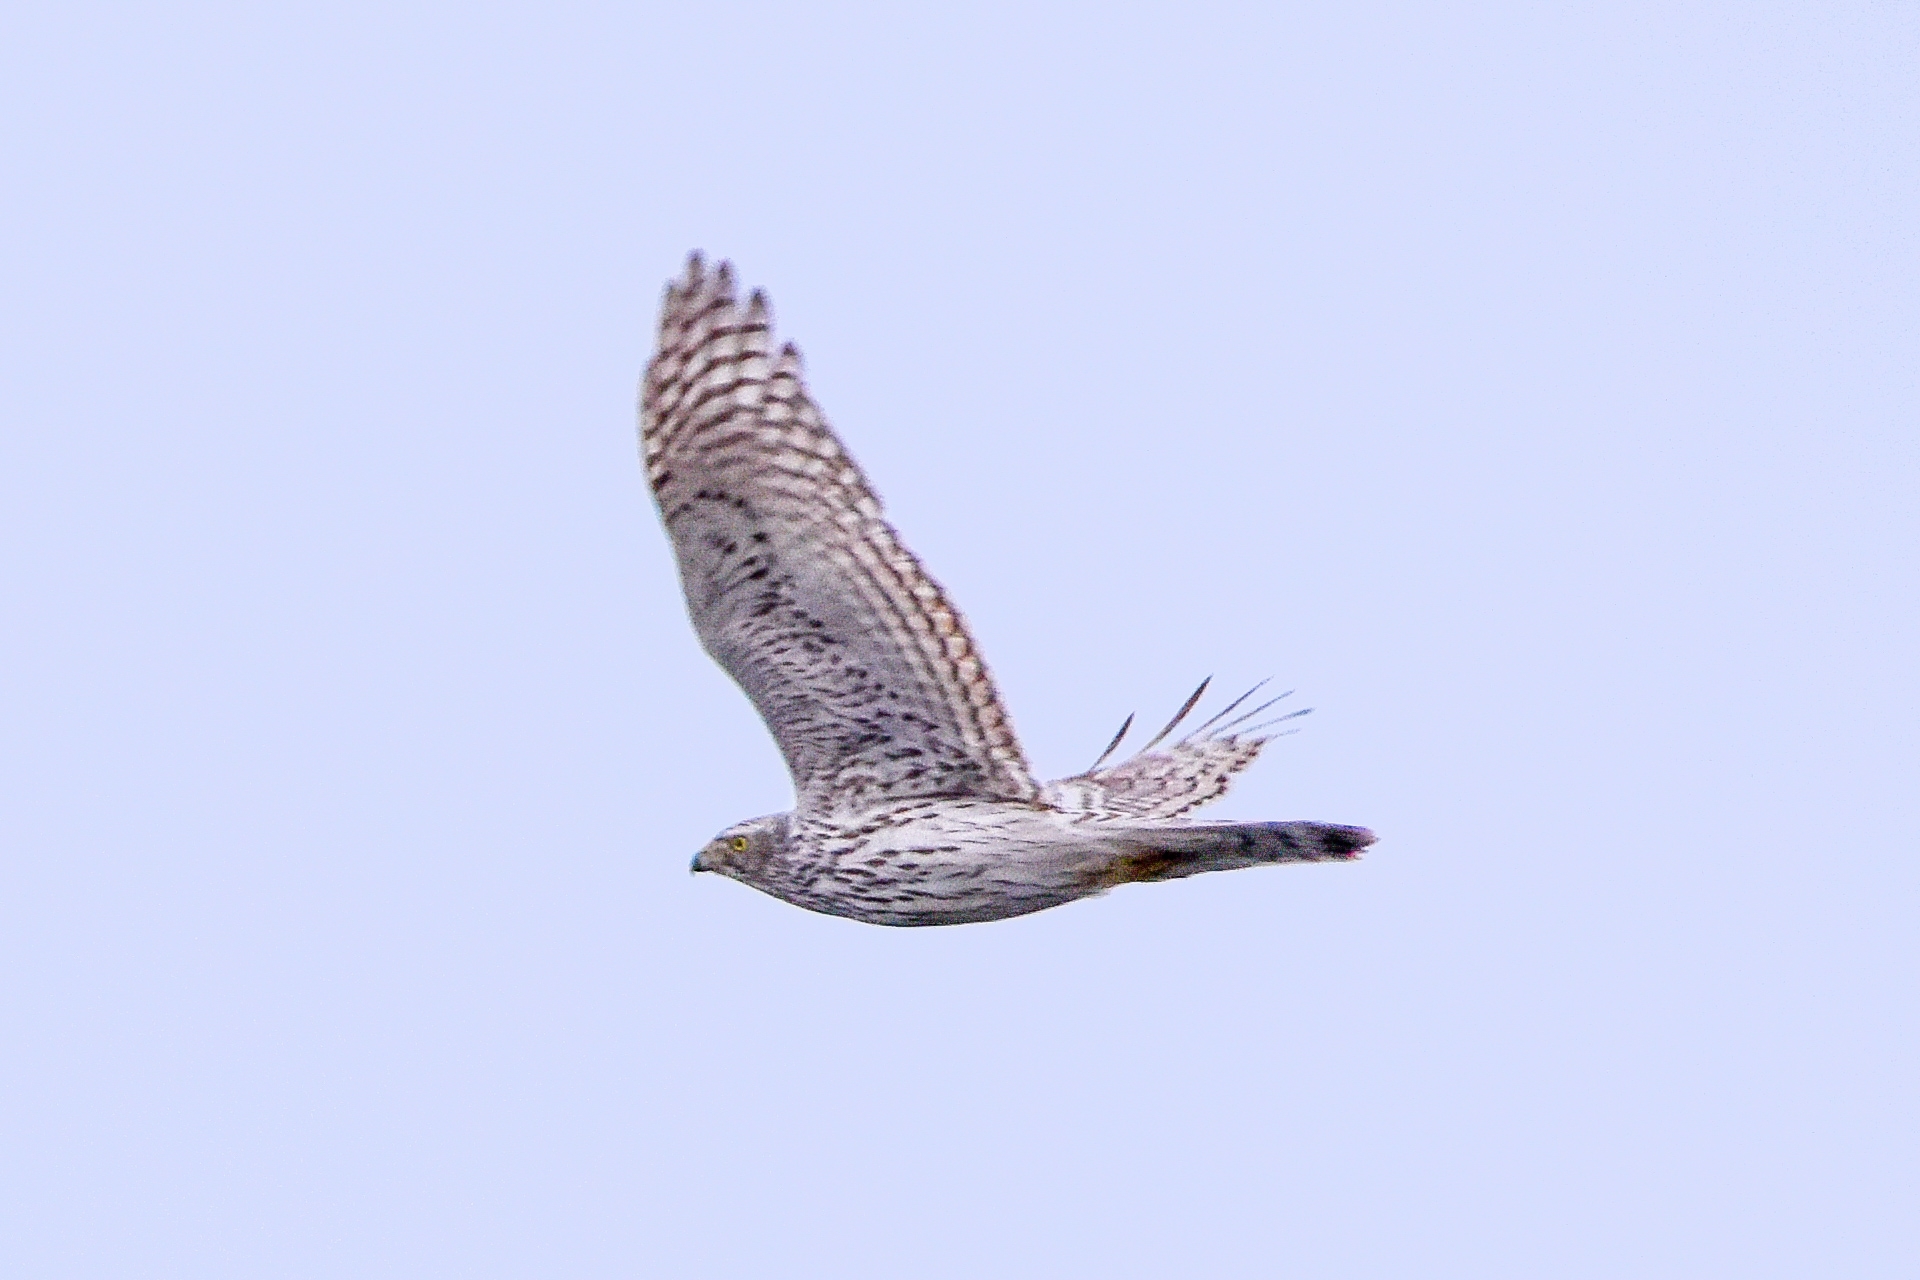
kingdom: Animalia
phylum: Chordata
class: Aves
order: Accipitriformes
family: Accipitridae
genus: Accipiter
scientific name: Accipiter gentilis
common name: Northern goshawk
